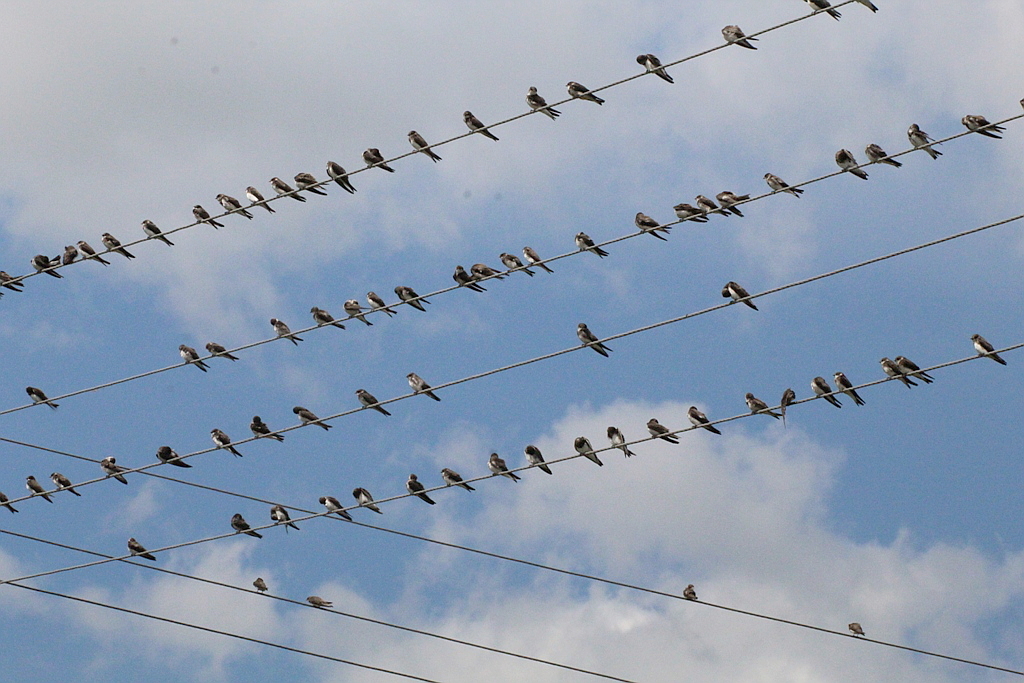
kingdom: Animalia
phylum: Chordata
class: Aves
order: Passeriformes
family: Hirundinidae
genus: Riparia
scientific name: Riparia riparia
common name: Sand martin
